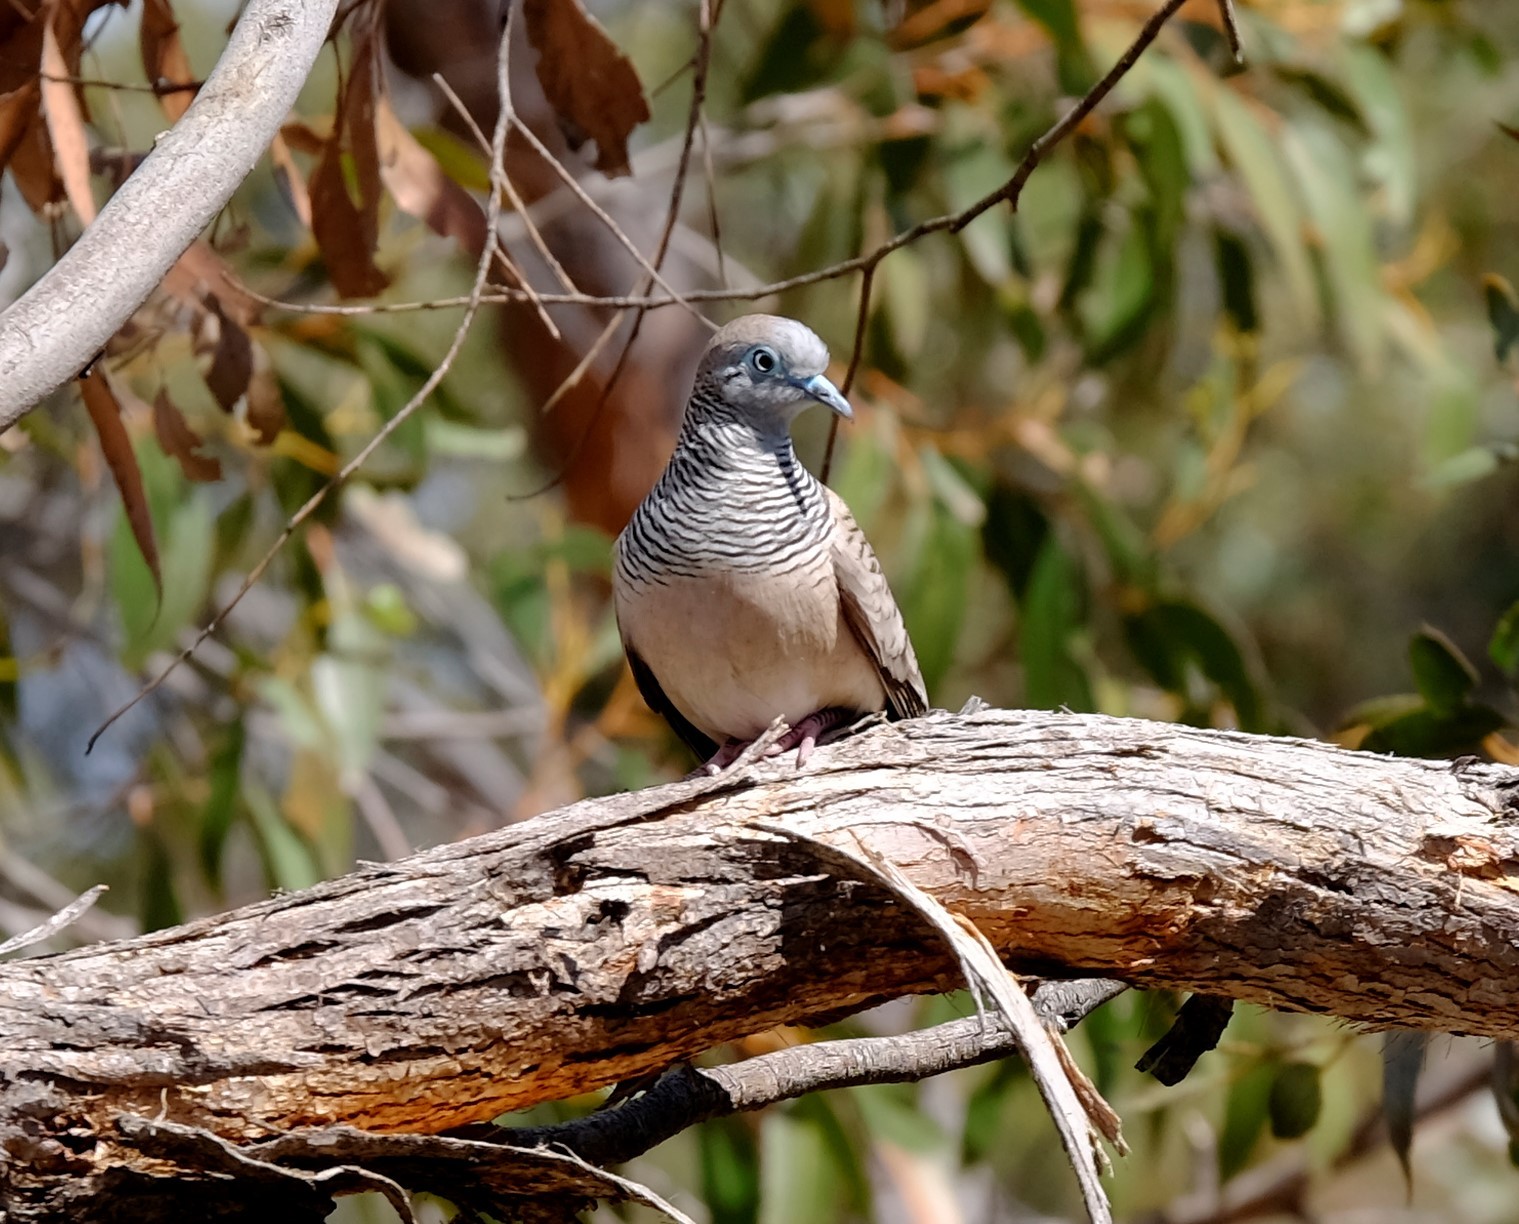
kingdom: Animalia
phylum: Chordata
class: Aves
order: Columbiformes
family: Columbidae
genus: Geopelia
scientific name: Geopelia placida
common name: Peaceful dove
